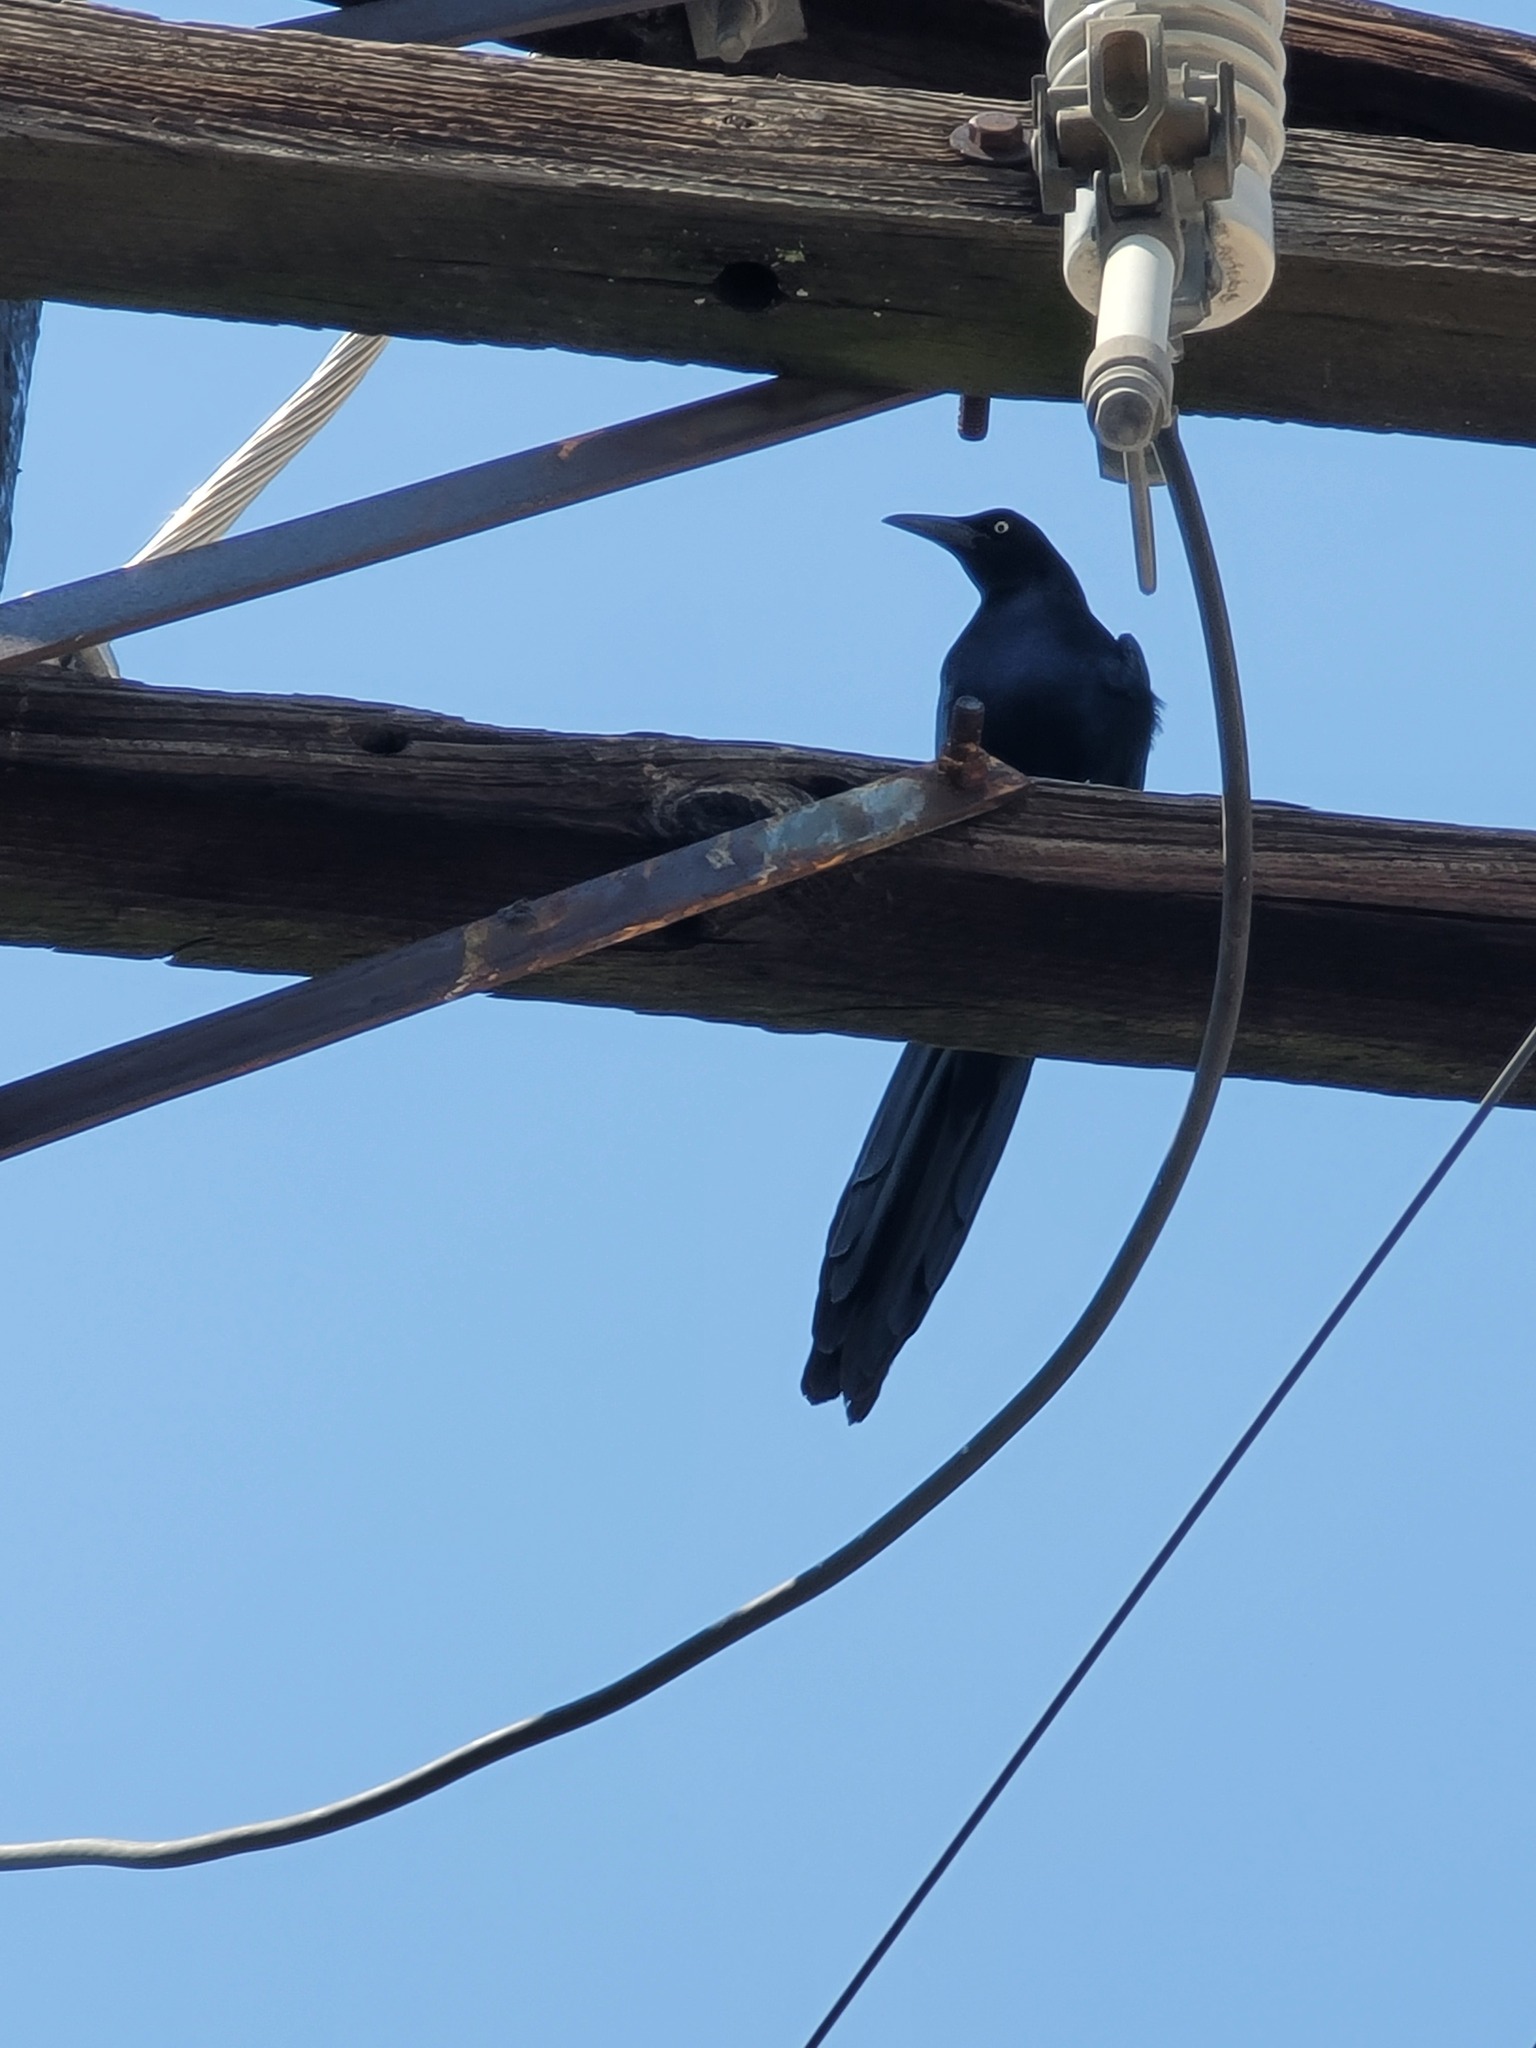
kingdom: Animalia
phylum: Chordata
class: Aves
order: Passeriformes
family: Icteridae
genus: Quiscalus
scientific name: Quiscalus mexicanus
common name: Great-tailed grackle
